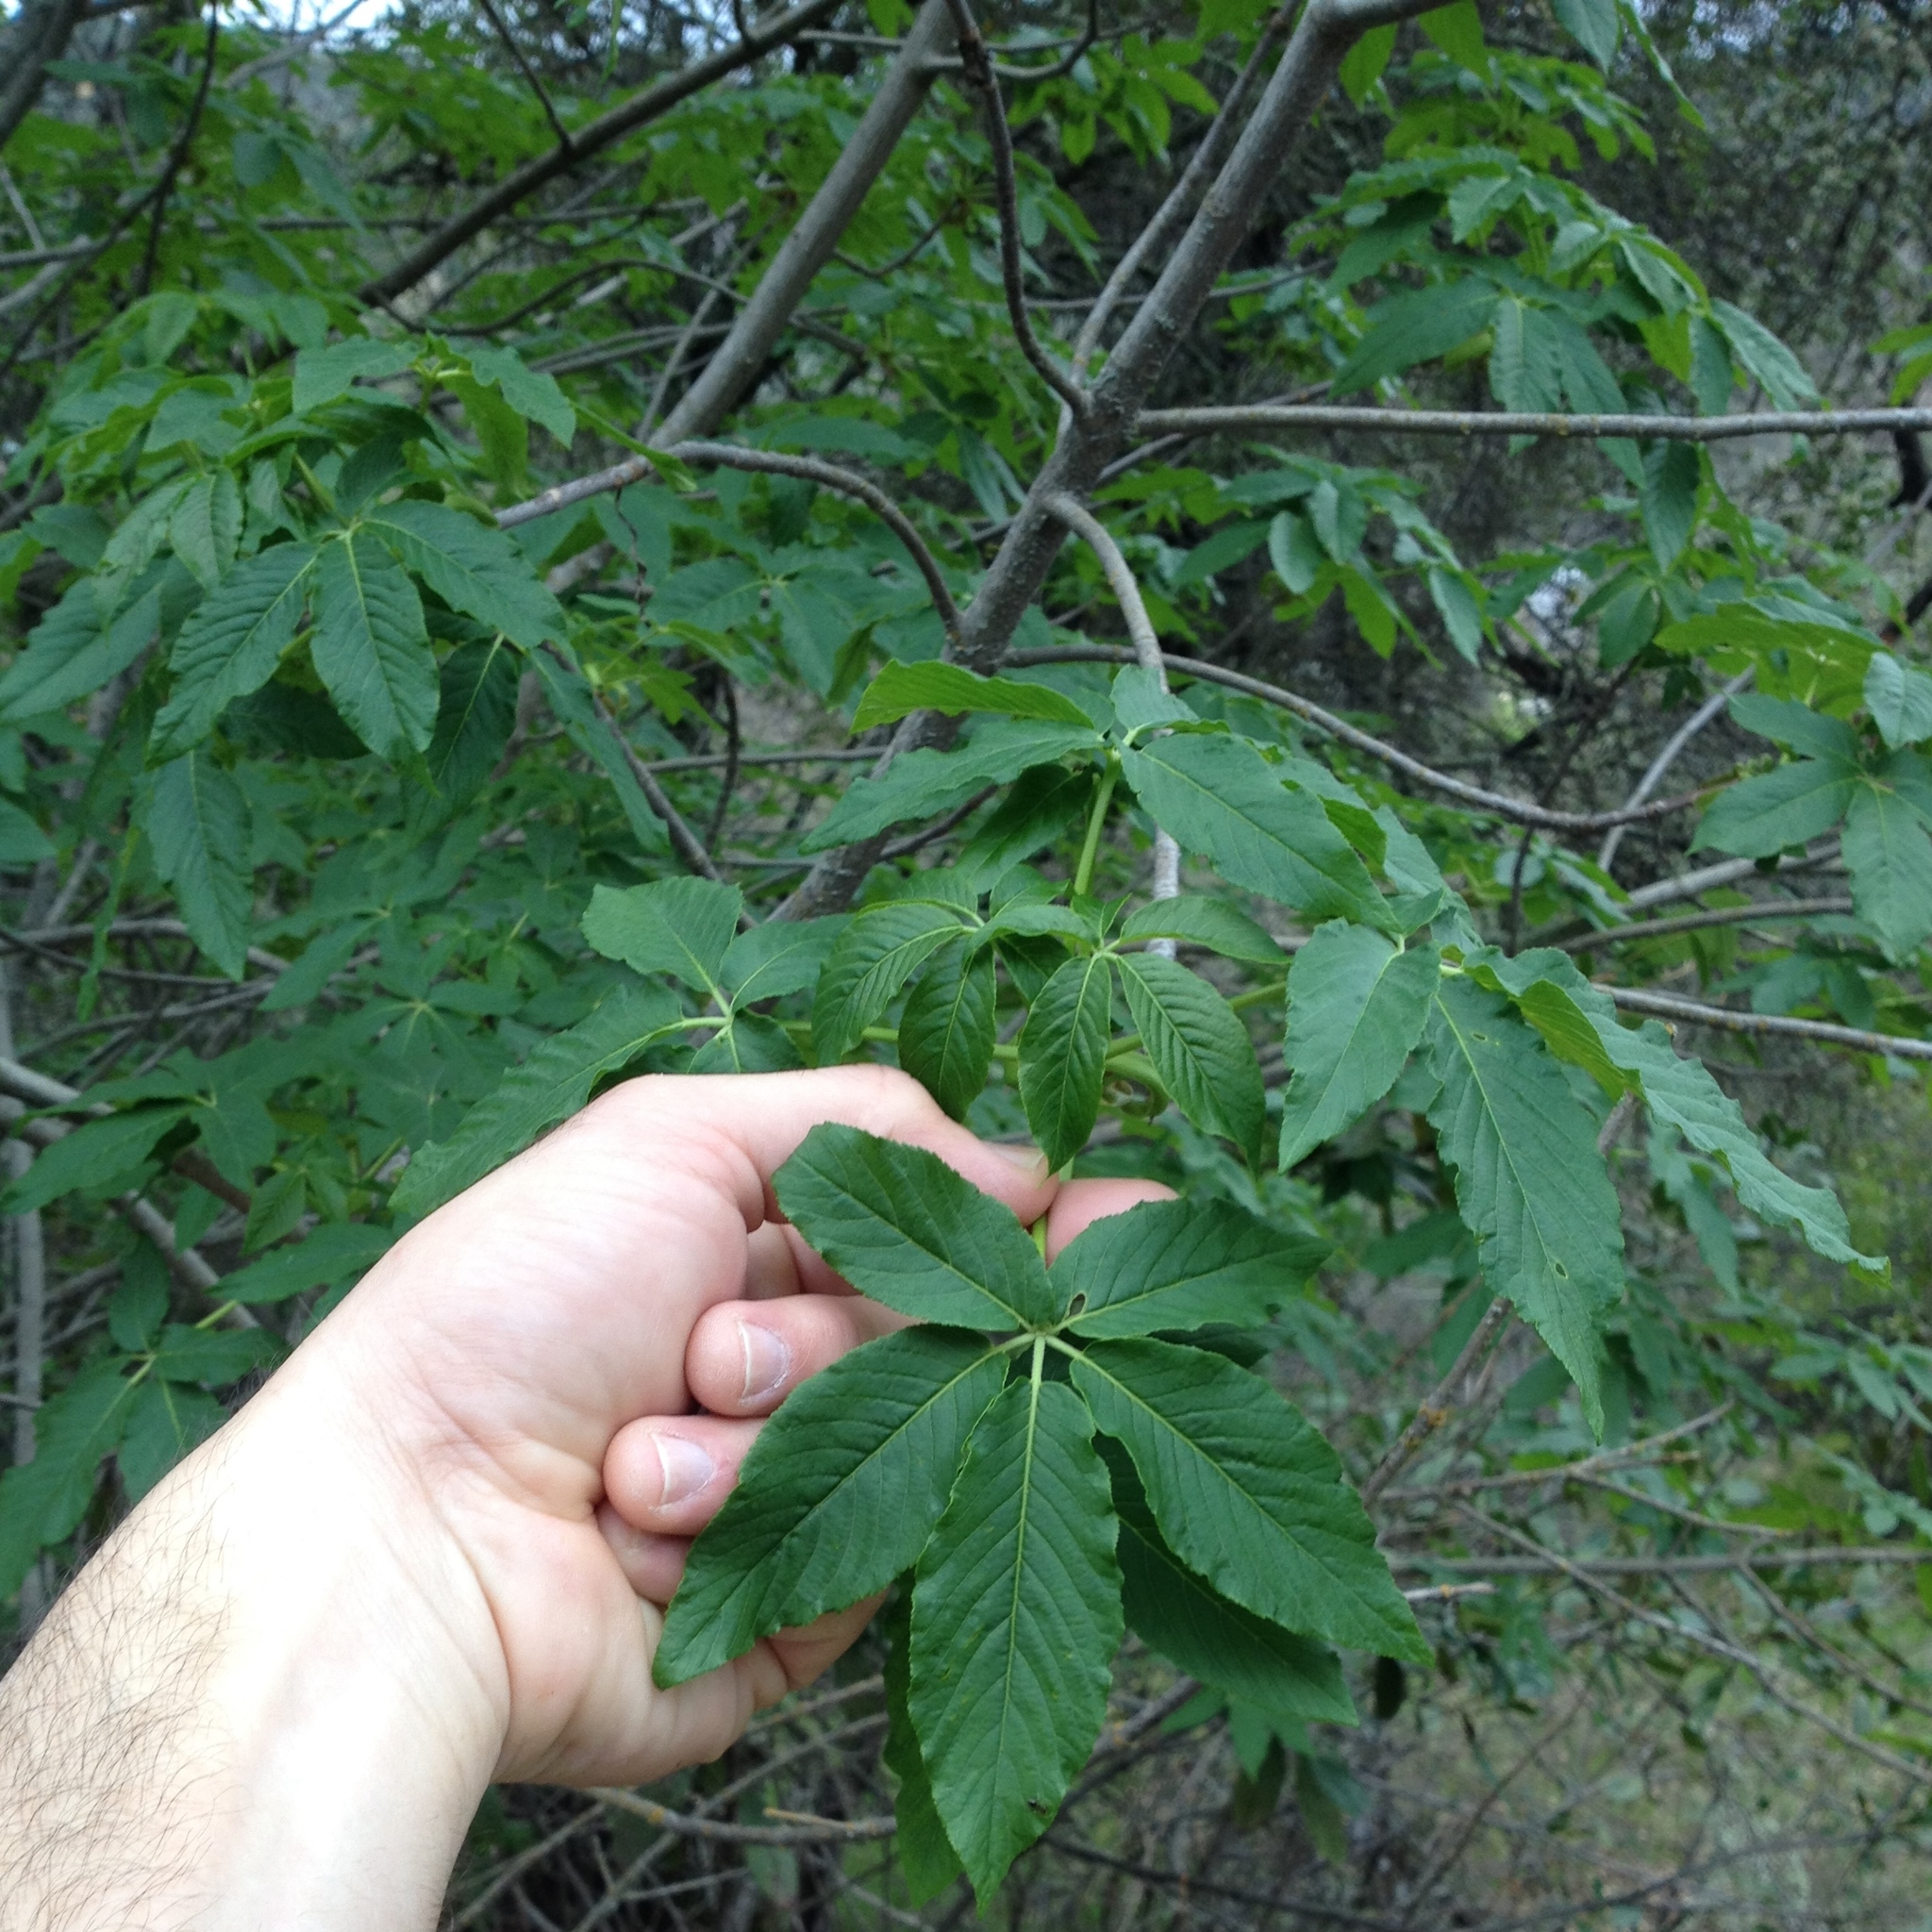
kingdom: Plantae
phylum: Tracheophyta
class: Magnoliopsida
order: Sapindales
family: Sapindaceae
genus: Aesculus
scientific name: Aesculus californica
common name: California buckeye
